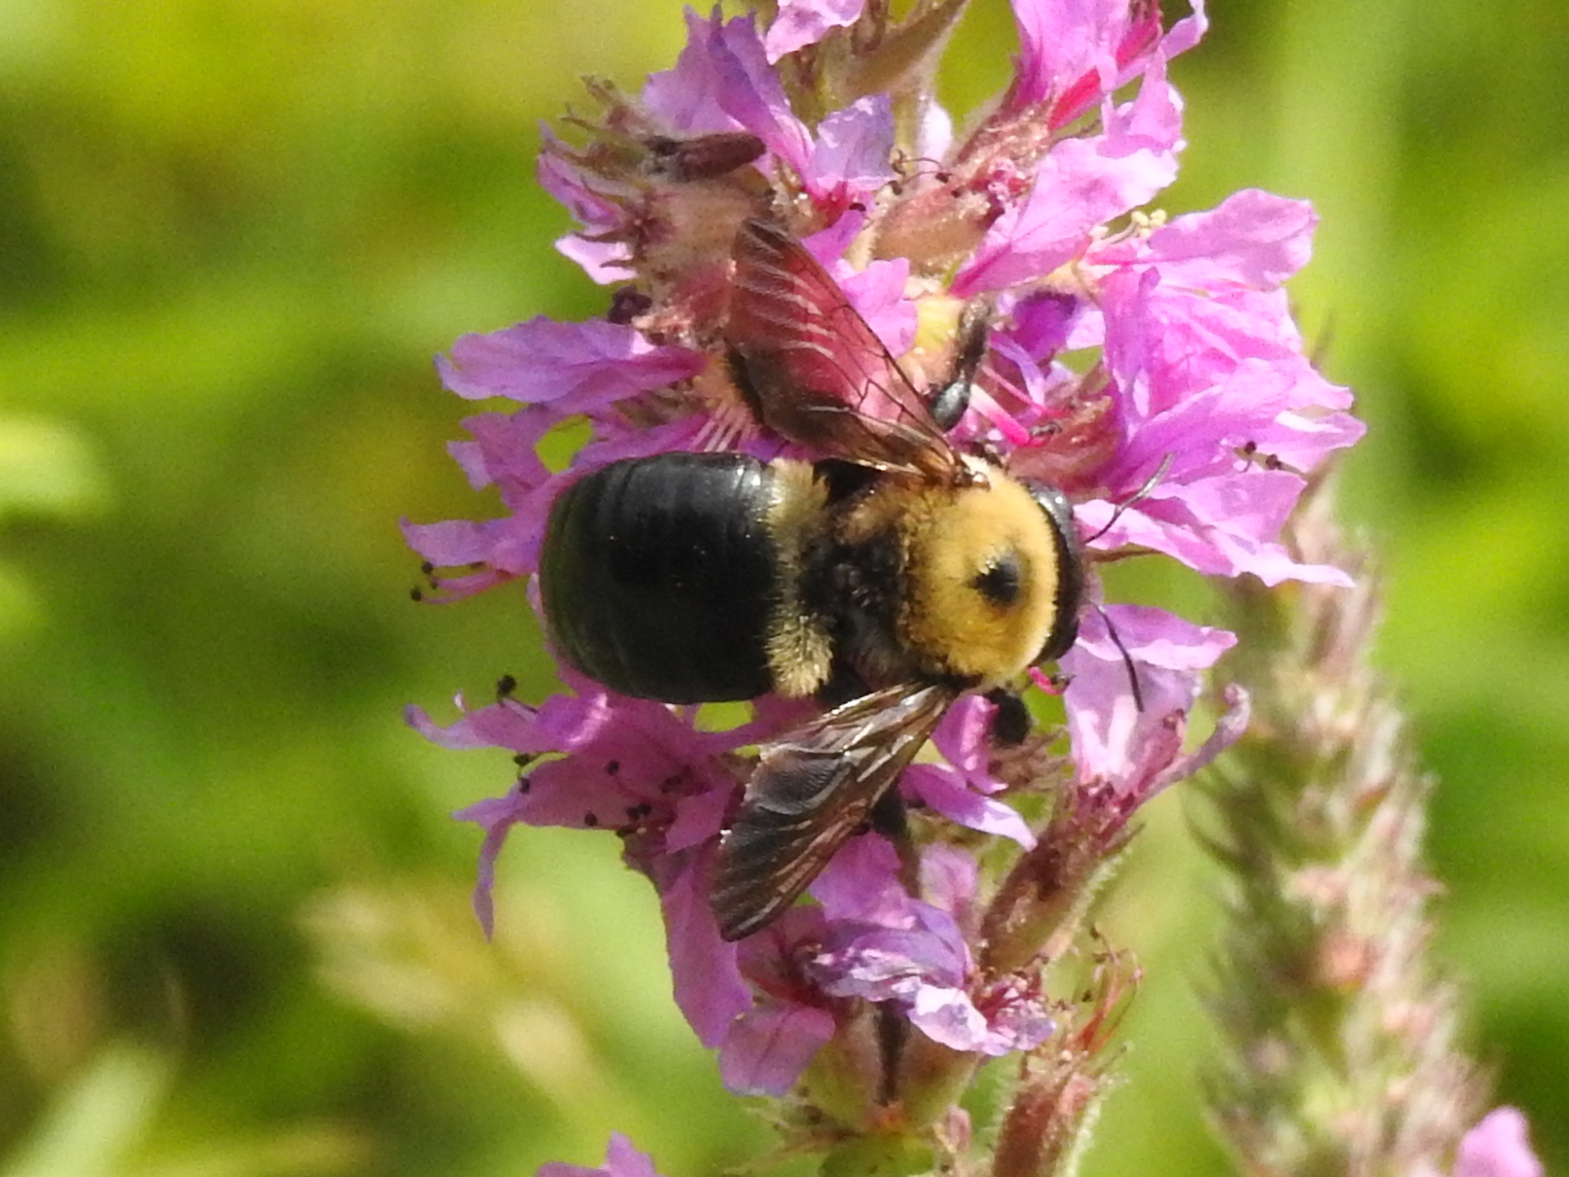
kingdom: Animalia
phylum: Arthropoda
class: Insecta
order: Hymenoptera
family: Apidae
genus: Xylocopa
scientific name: Xylocopa virginica
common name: Carpenter bee
